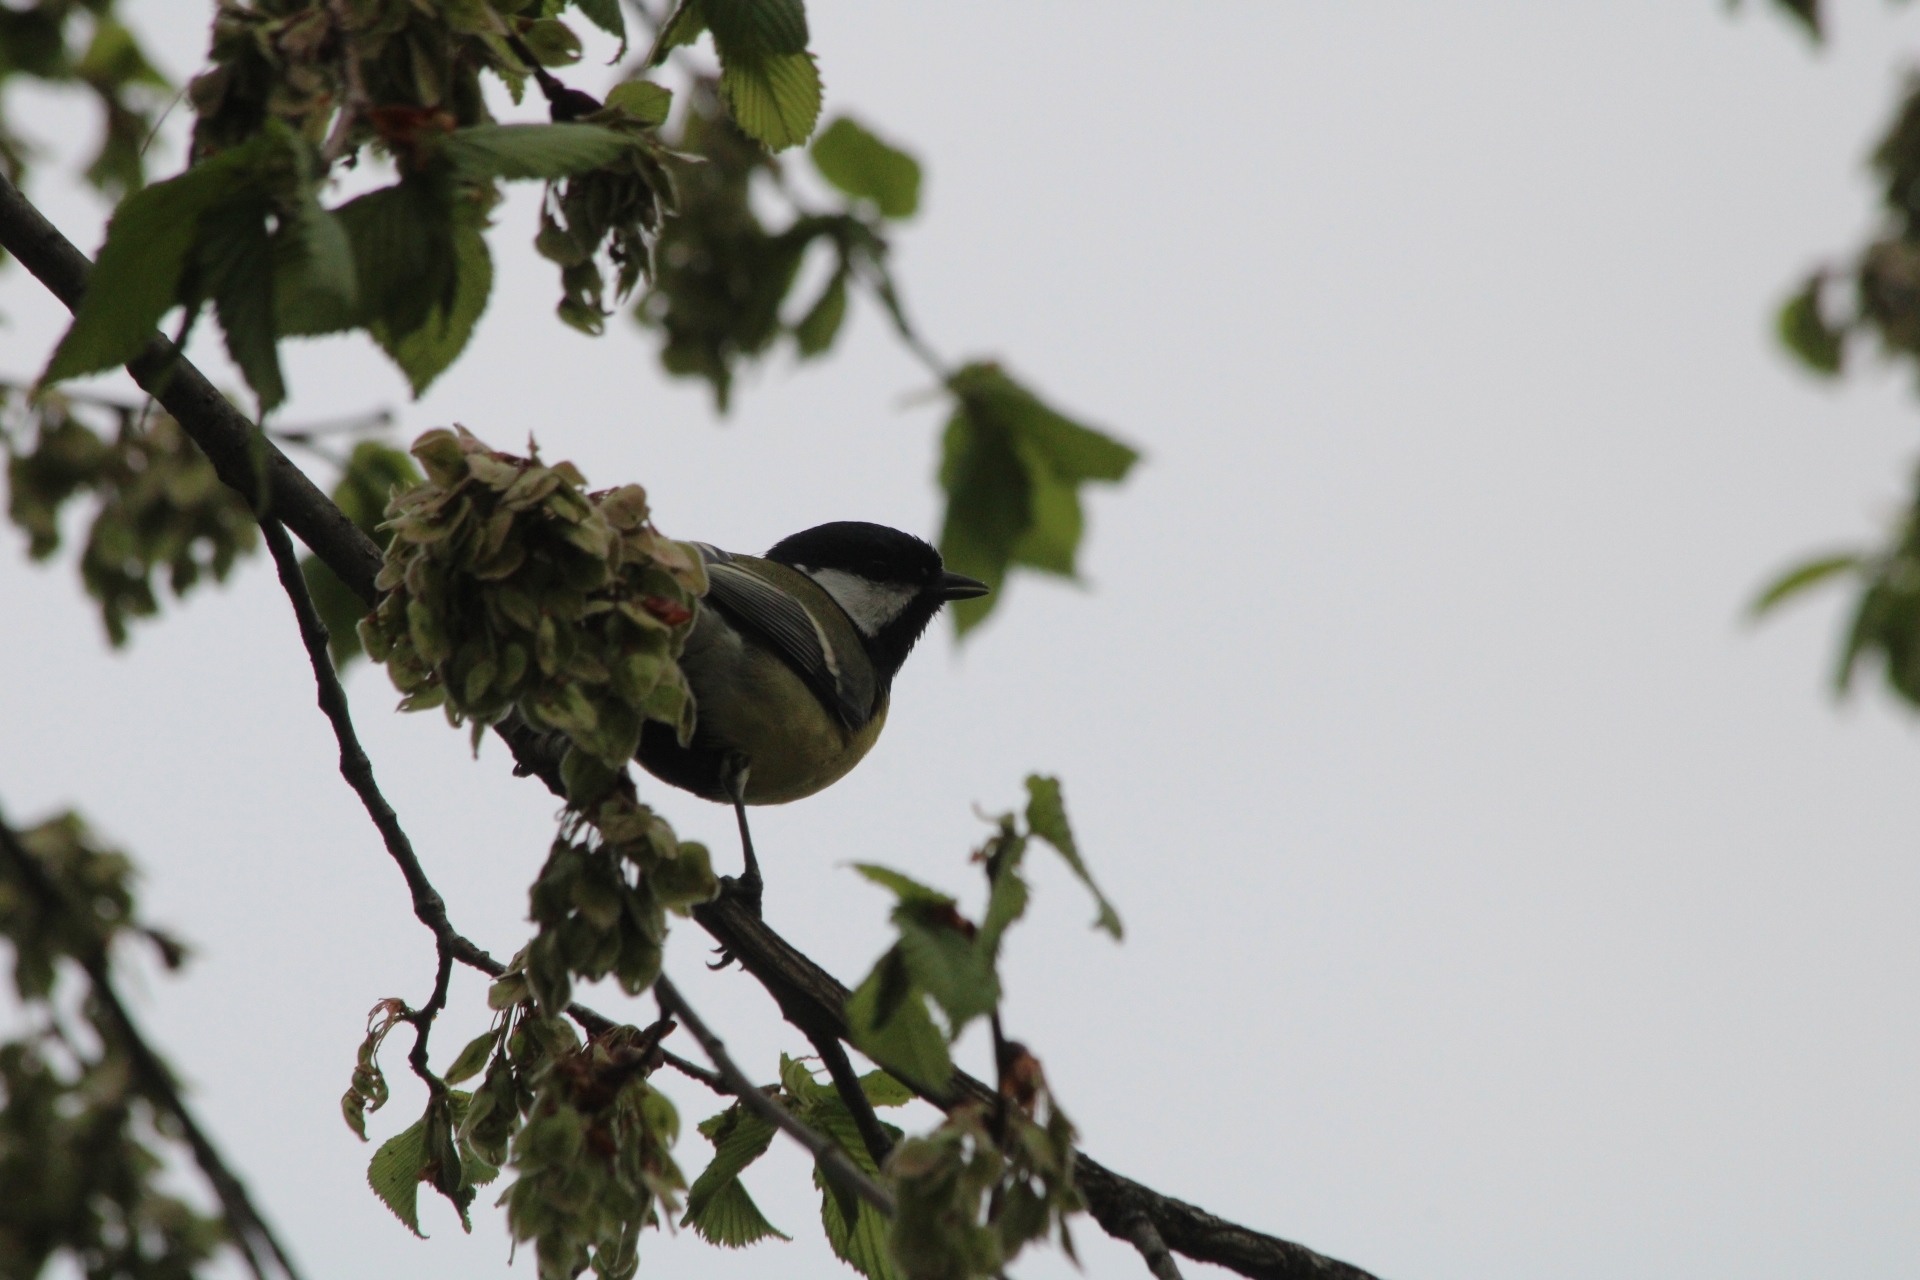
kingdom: Animalia
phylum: Chordata
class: Aves
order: Passeriformes
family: Paridae
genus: Parus
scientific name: Parus major
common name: Great tit
